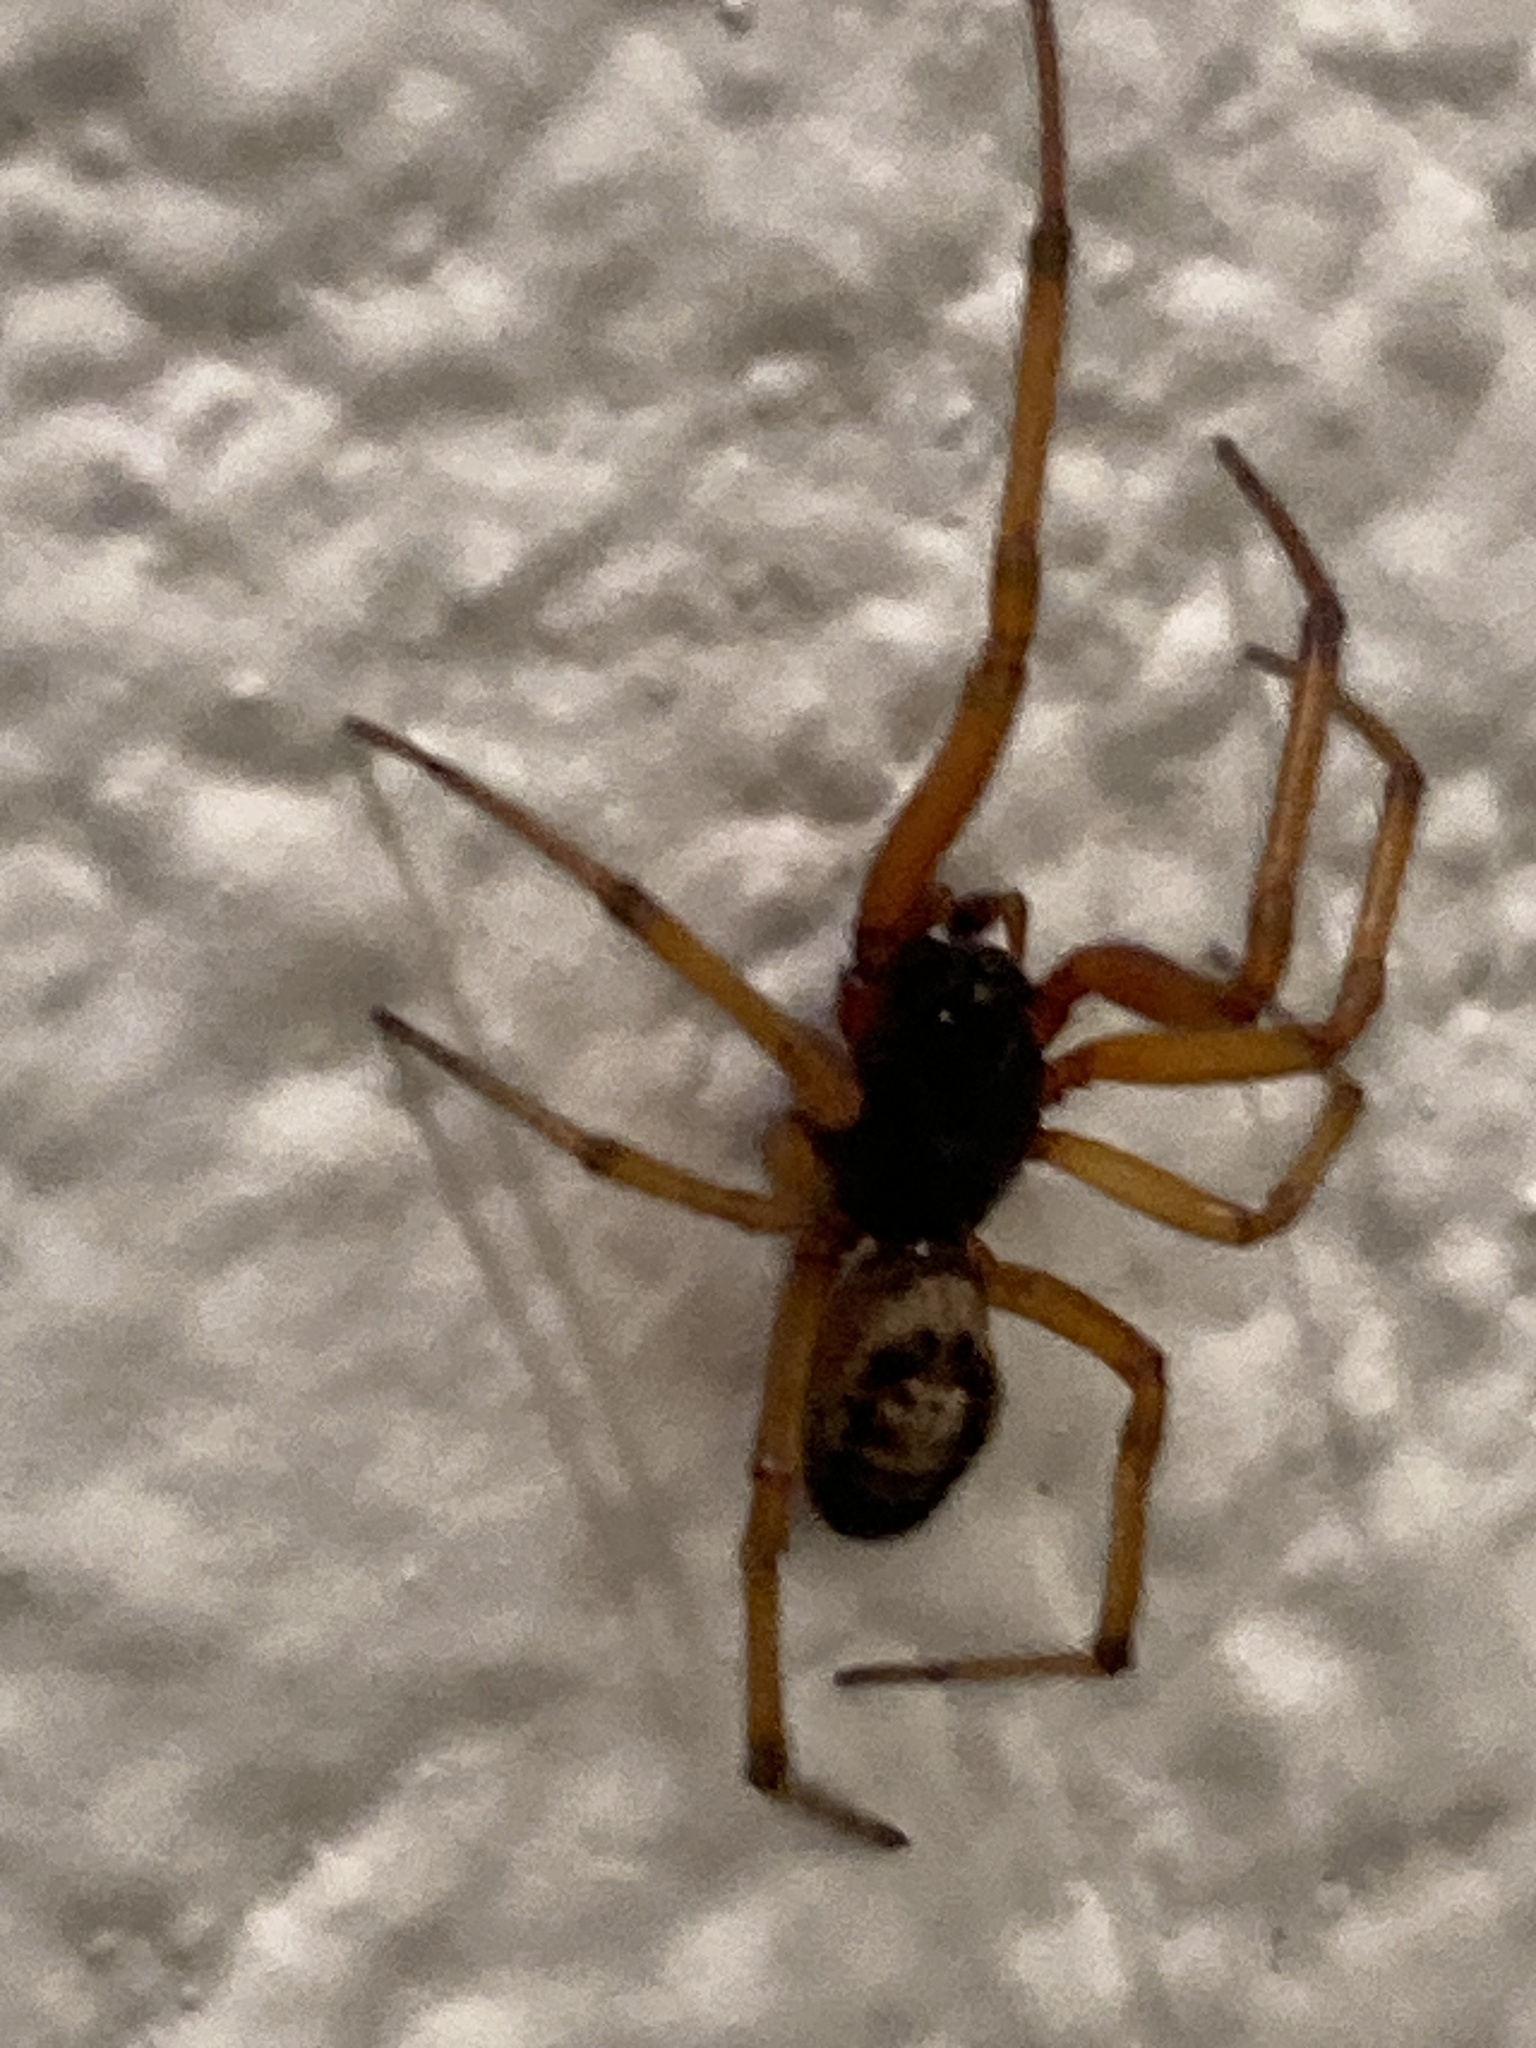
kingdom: Animalia
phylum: Arthropoda
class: Arachnida
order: Araneae
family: Theridiidae
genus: Steatoda
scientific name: Steatoda nobilis
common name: Cobweb weaver
